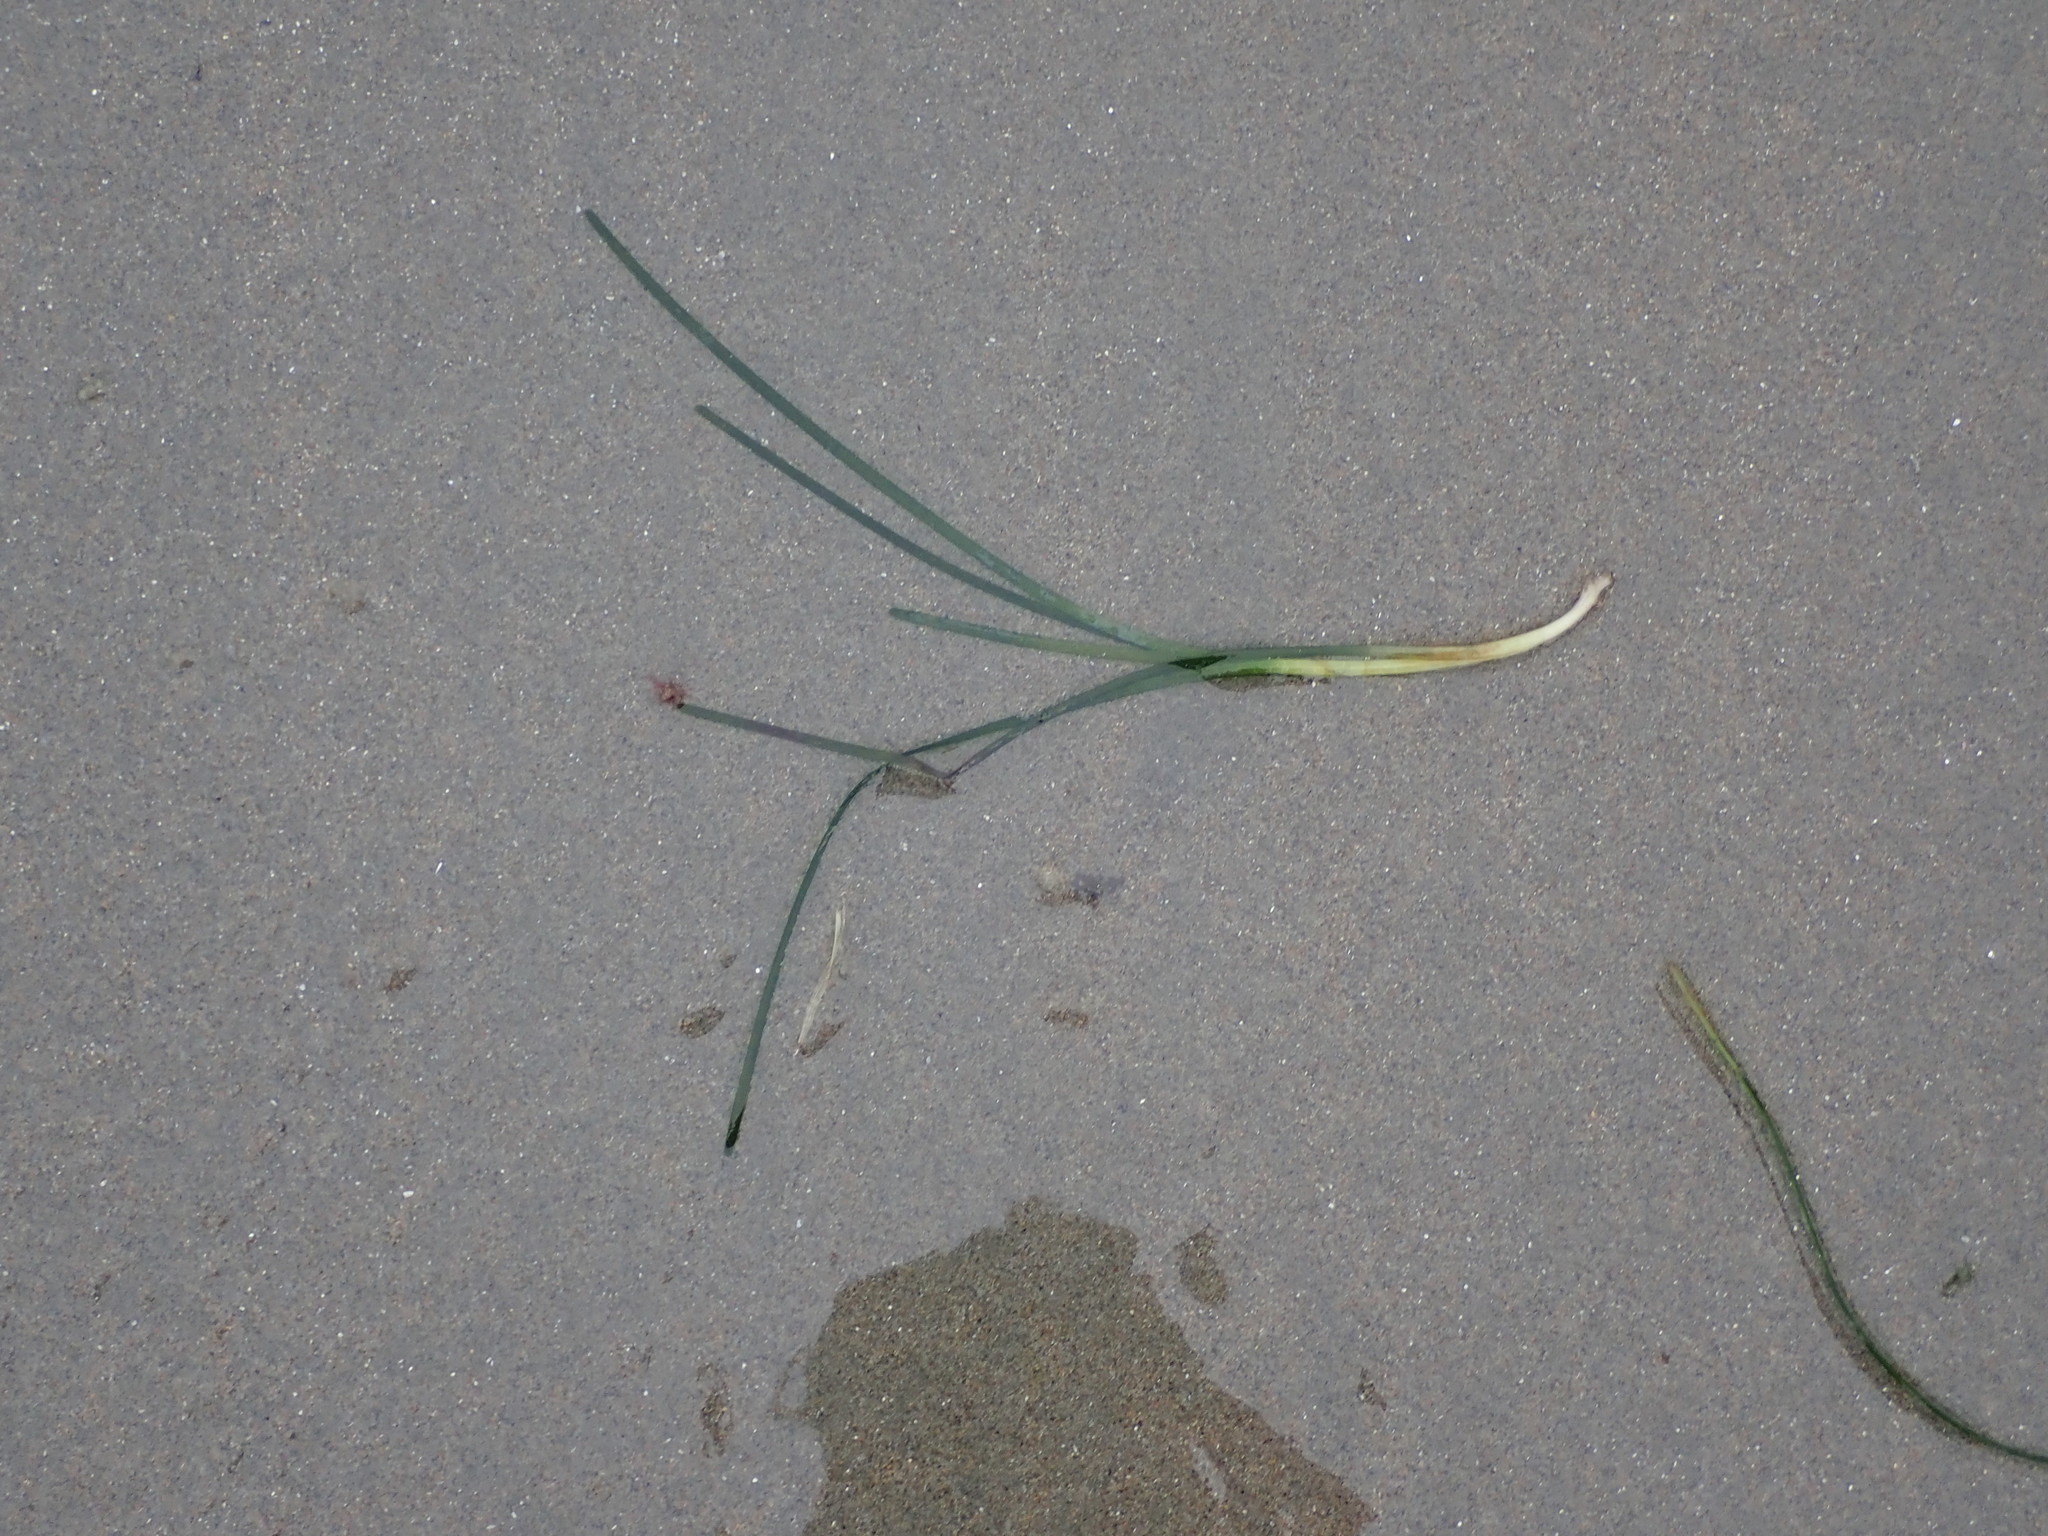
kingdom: Plantae
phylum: Tracheophyta
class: Liliopsida
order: Alismatales
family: Zosteraceae
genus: Zostera
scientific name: Zostera marina
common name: Eelgrass
